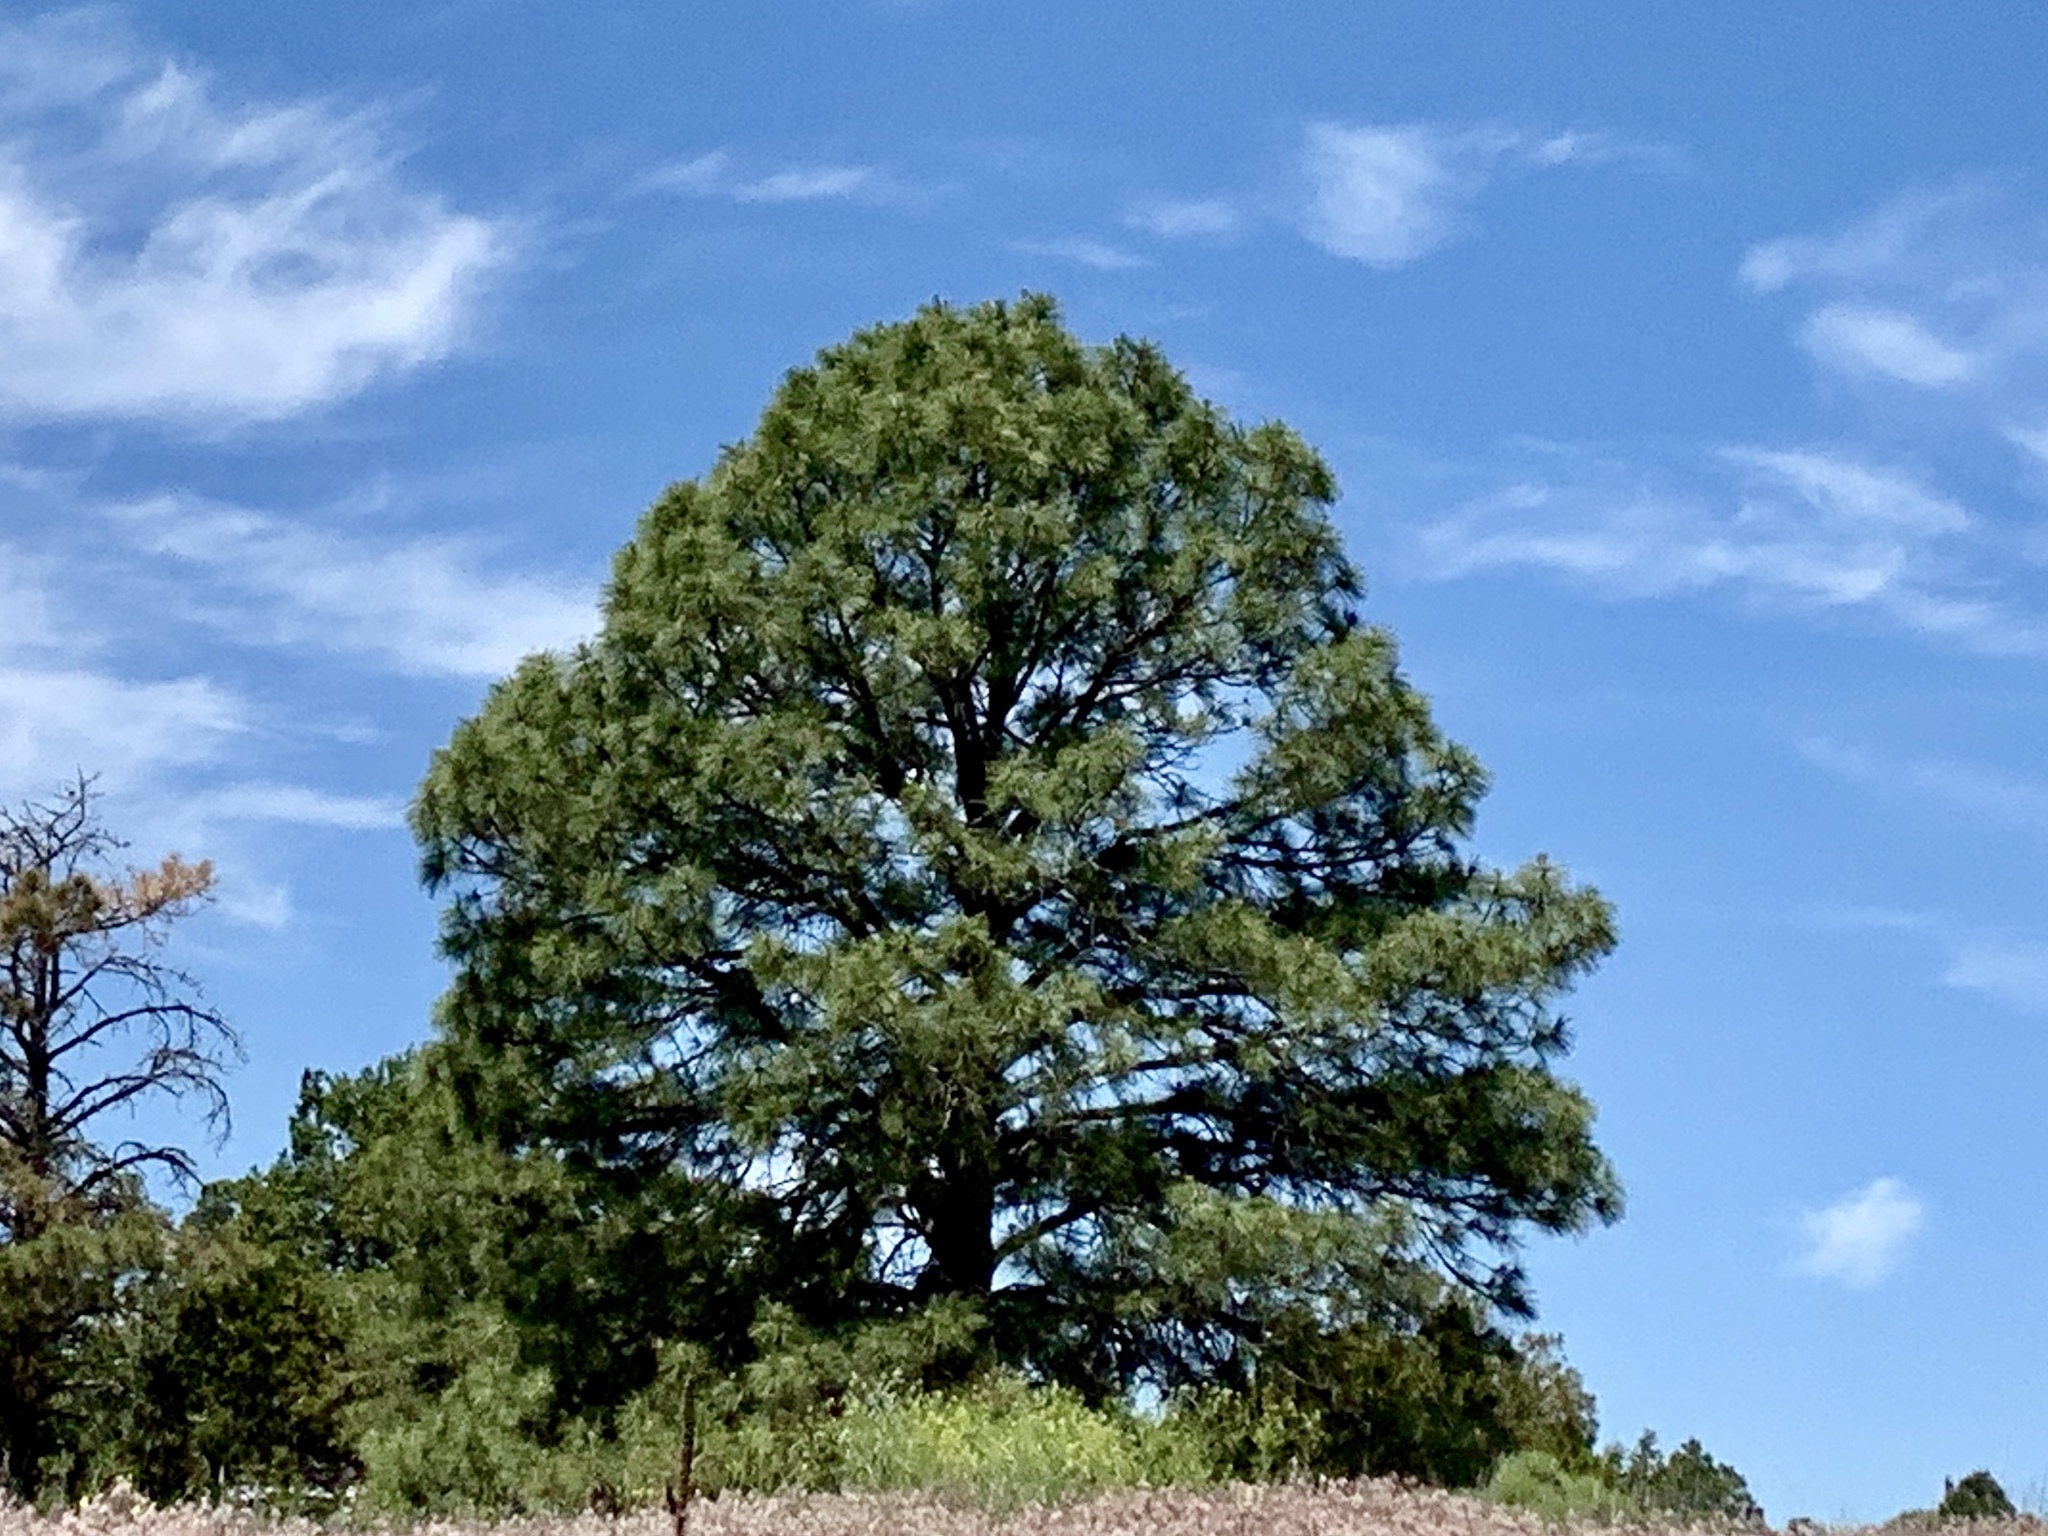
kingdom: Plantae
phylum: Tracheophyta
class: Pinopsida
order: Pinales
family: Pinaceae
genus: Pinus
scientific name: Pinus ponderosa
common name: Western yellow-pine
